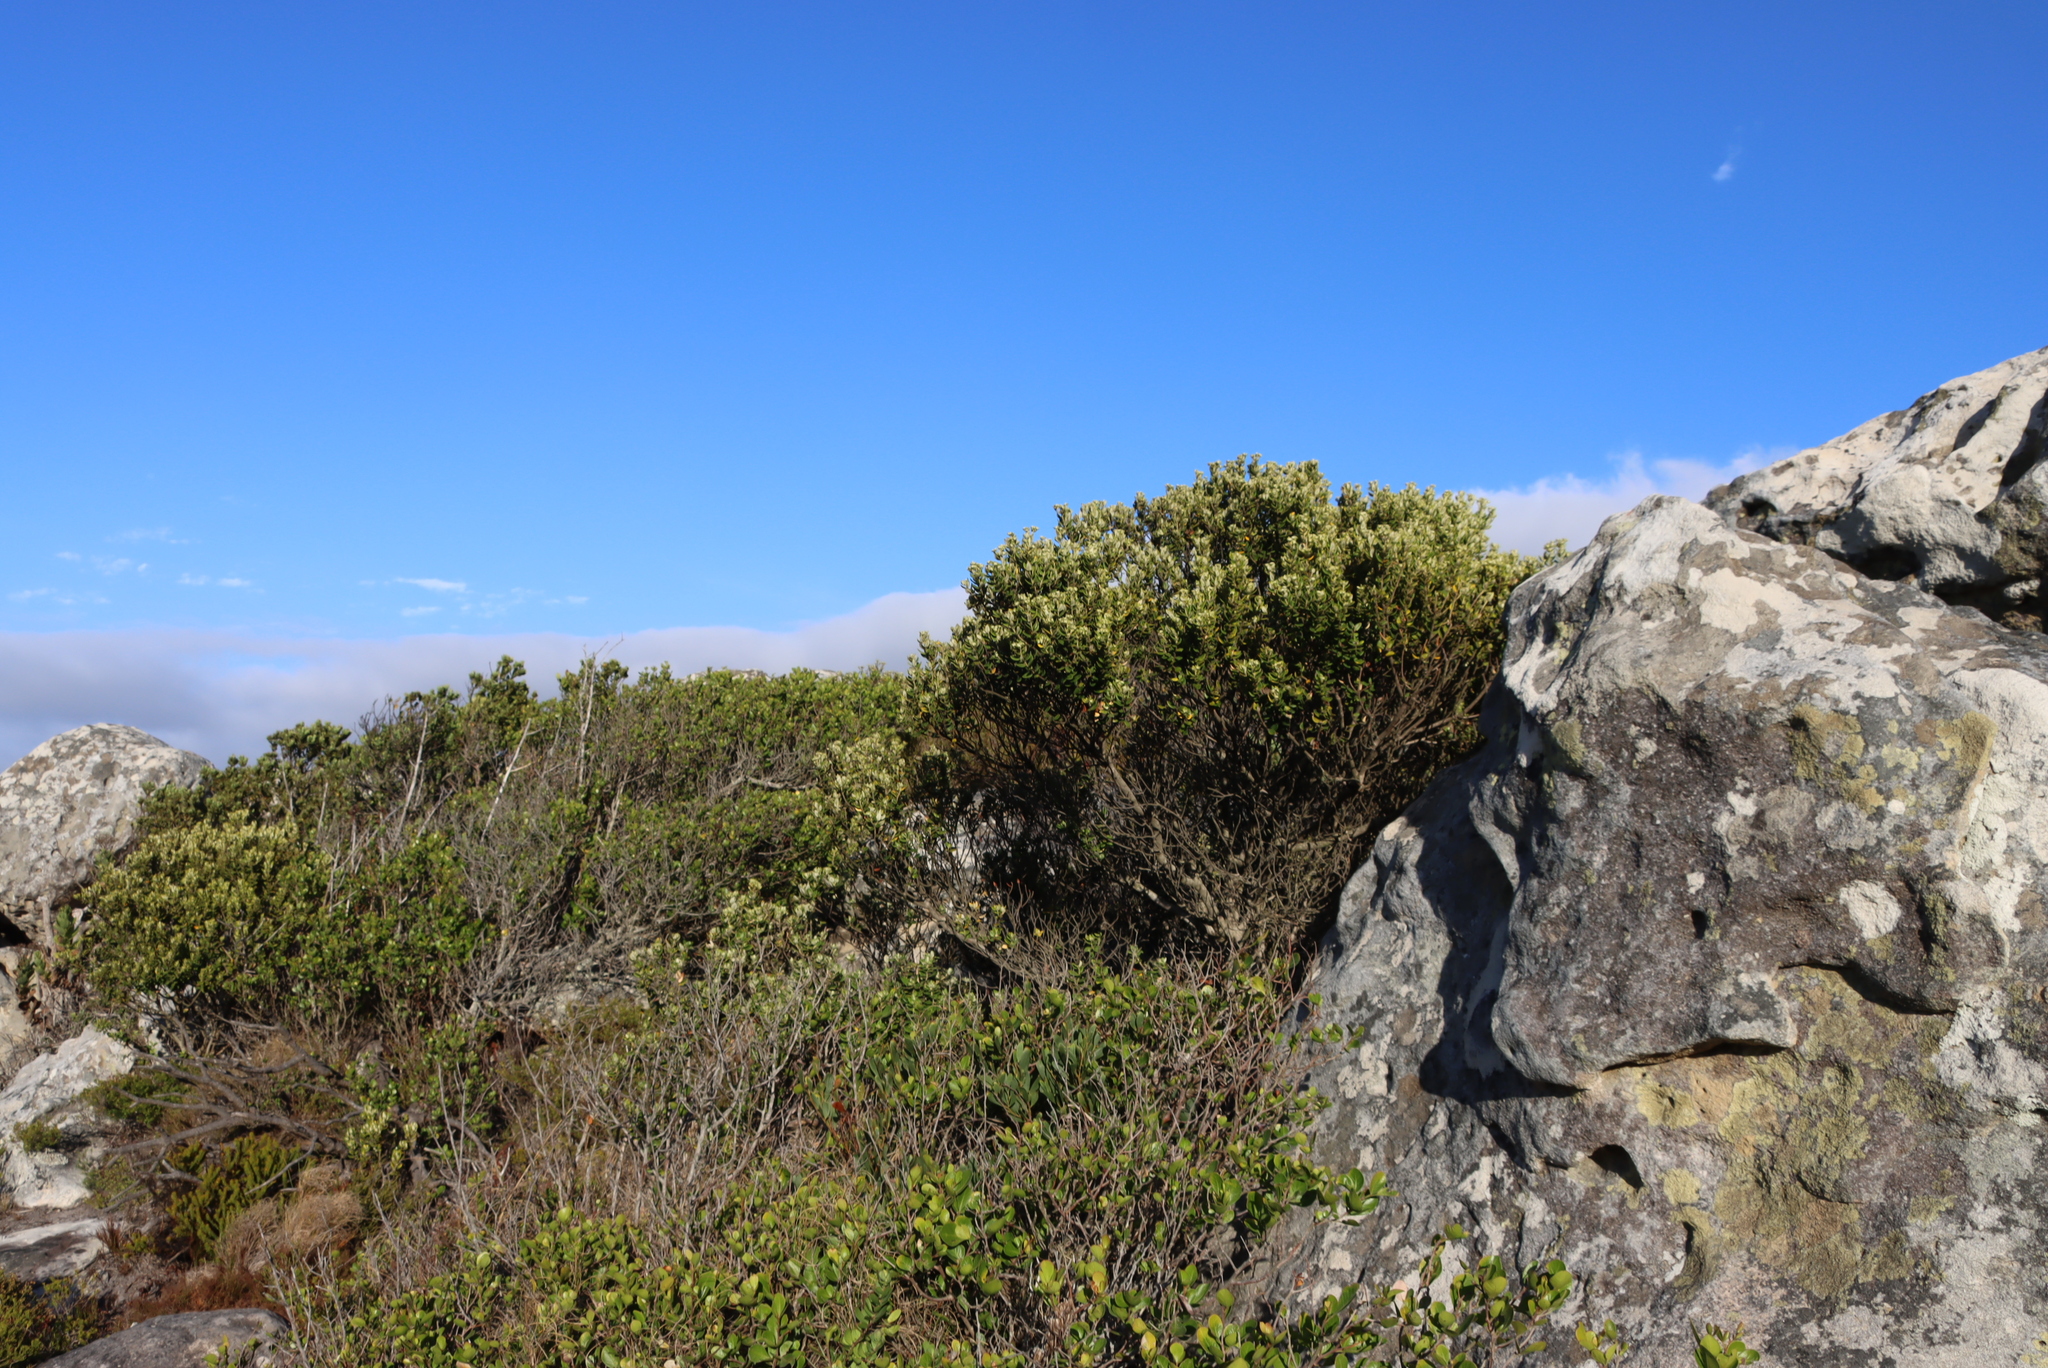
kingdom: Plantae
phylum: Tracheophyta
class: Magnoliopsida
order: Rosales
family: Rhamnaceae
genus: Phylica
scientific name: Phylica buxifolia
